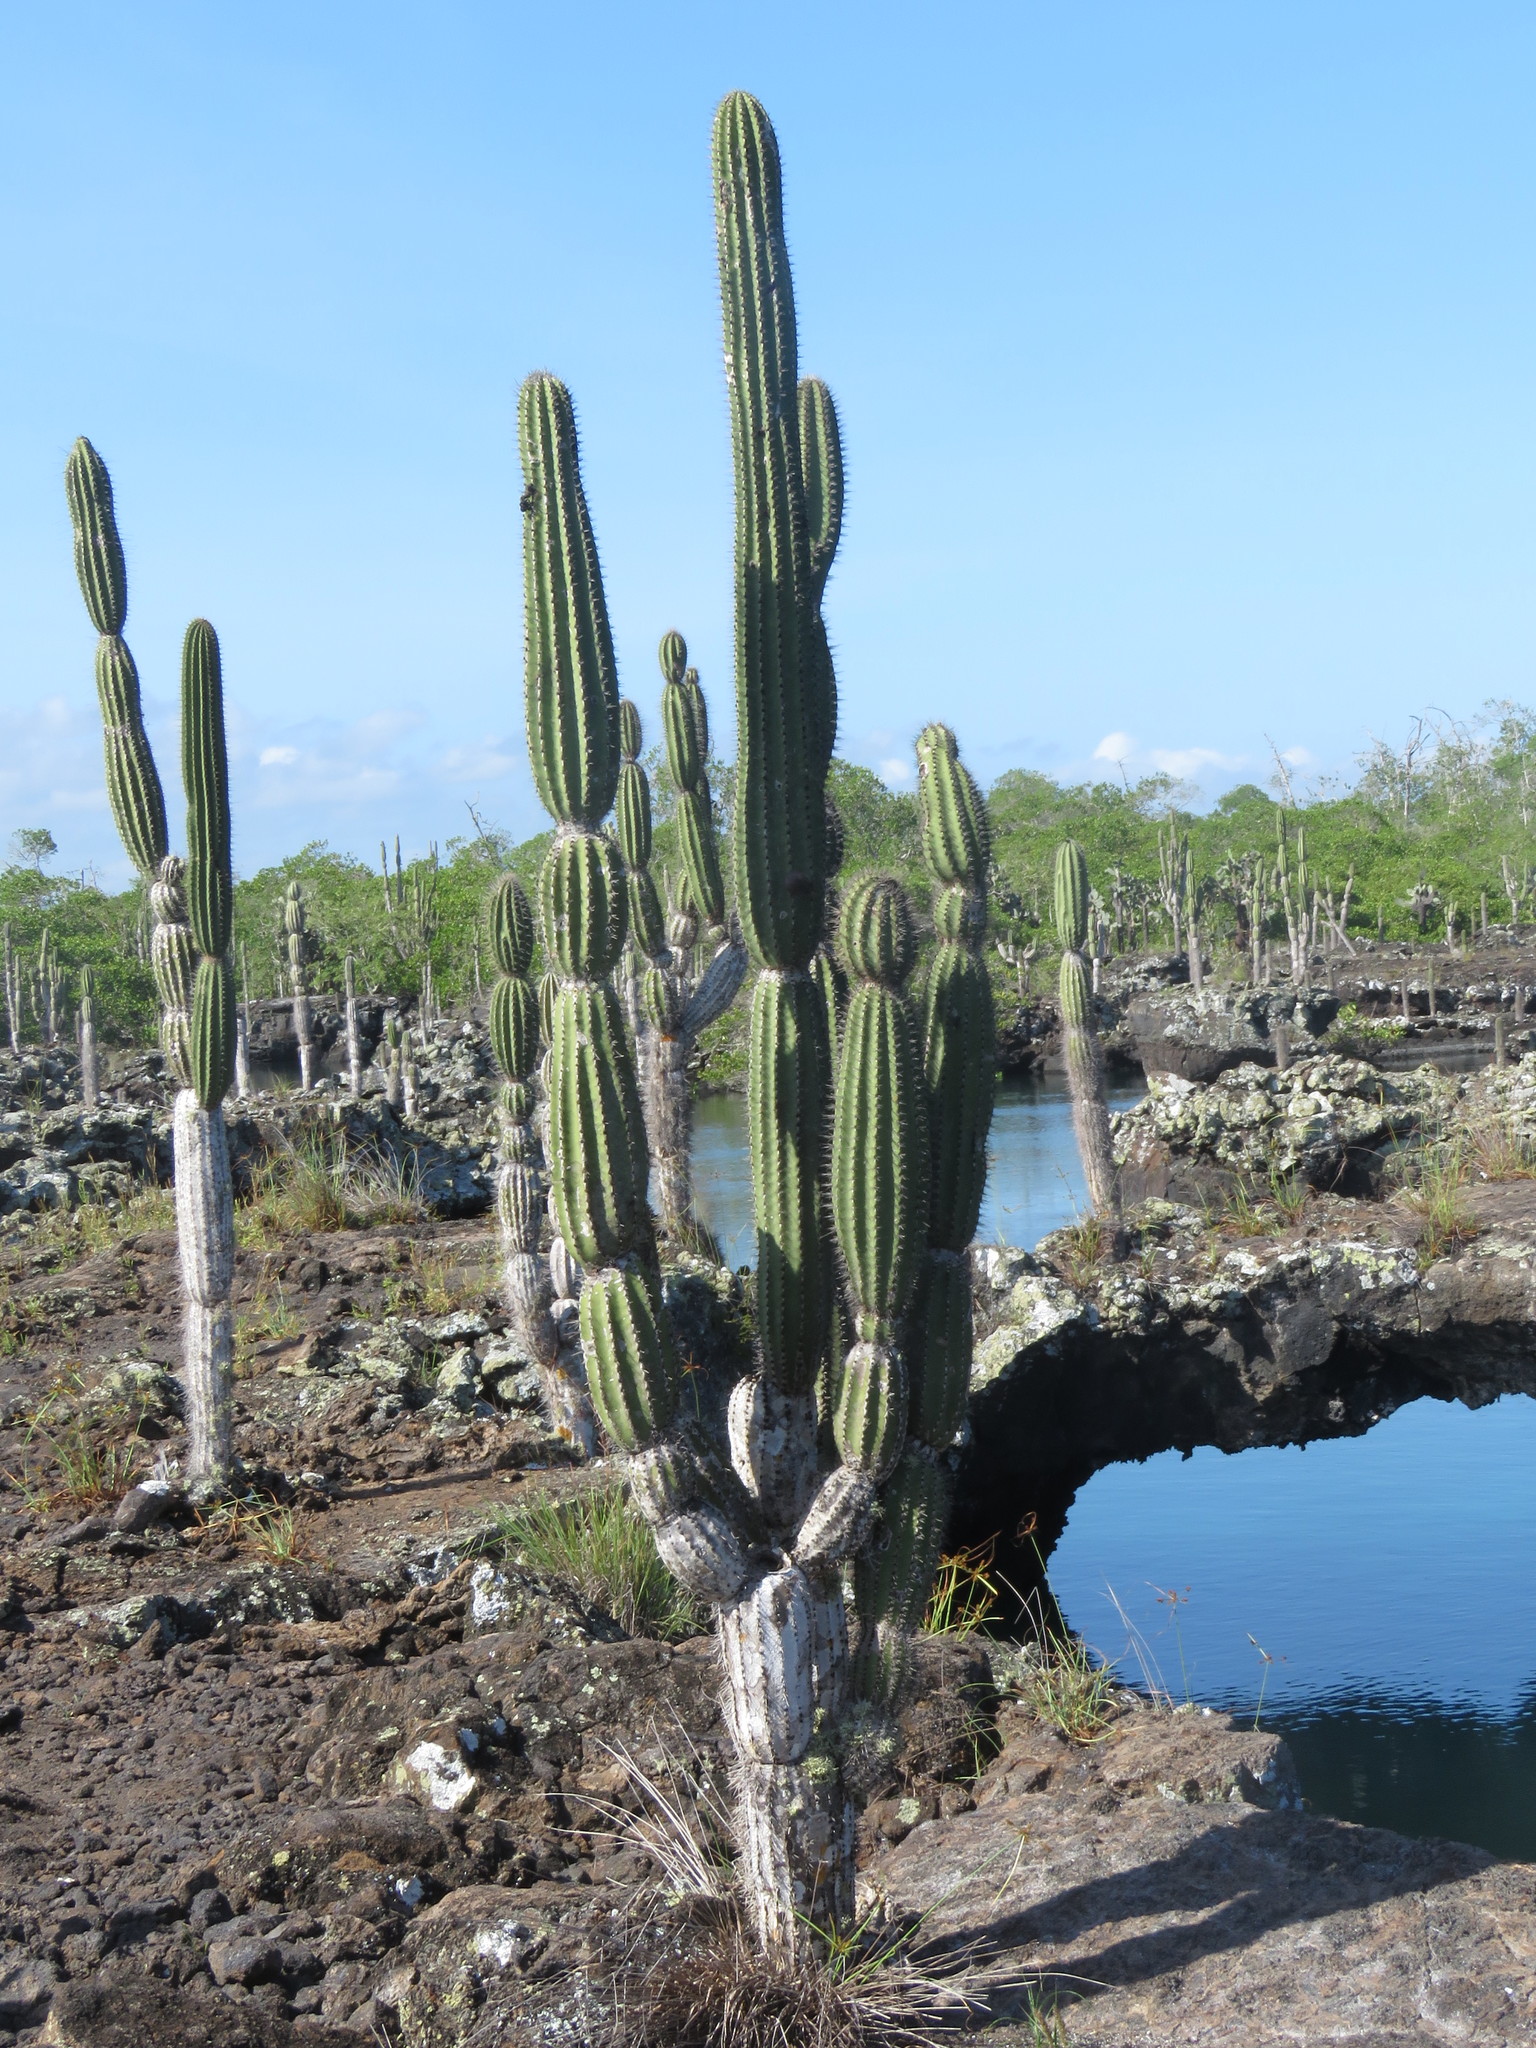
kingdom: Plantae
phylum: Tracheophyta
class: Magnoliopsida
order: Caryophyllales
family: Cactaceae
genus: Jasminocereus
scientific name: Jasminocereus thouarsii
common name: Candelabra cactus
